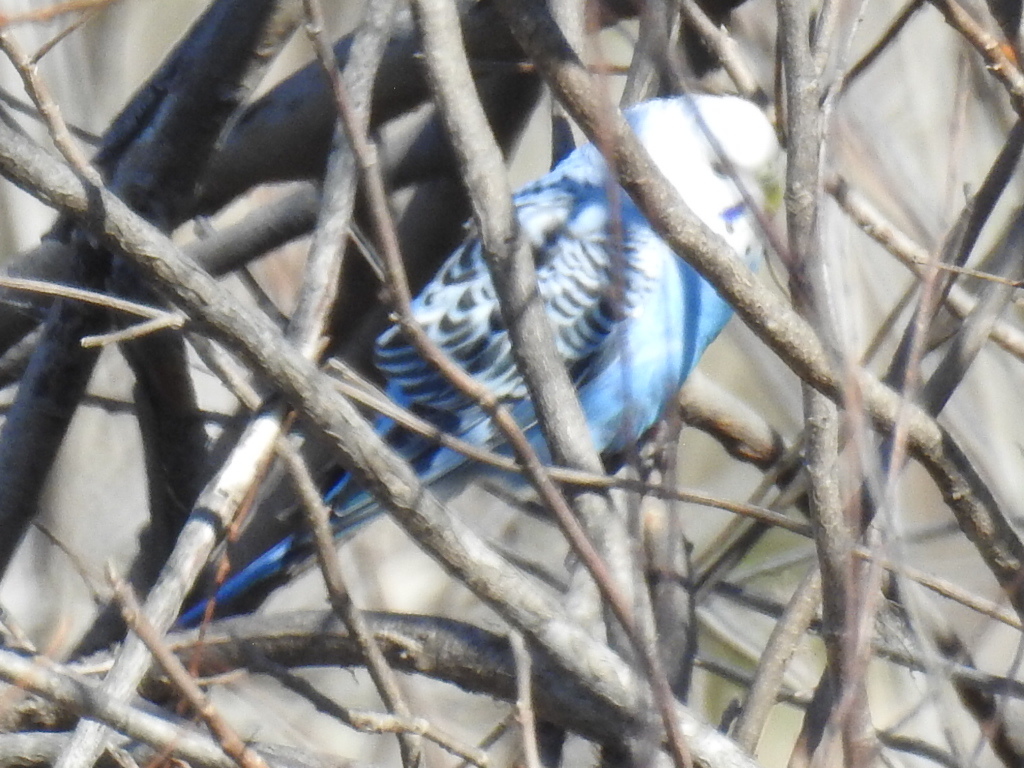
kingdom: Animalia
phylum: Chordata
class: Aves
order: Psittaciformes
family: Psittacidae
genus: Melopsittacus
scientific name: Melopsittacus undulatus
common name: Budgerigar
